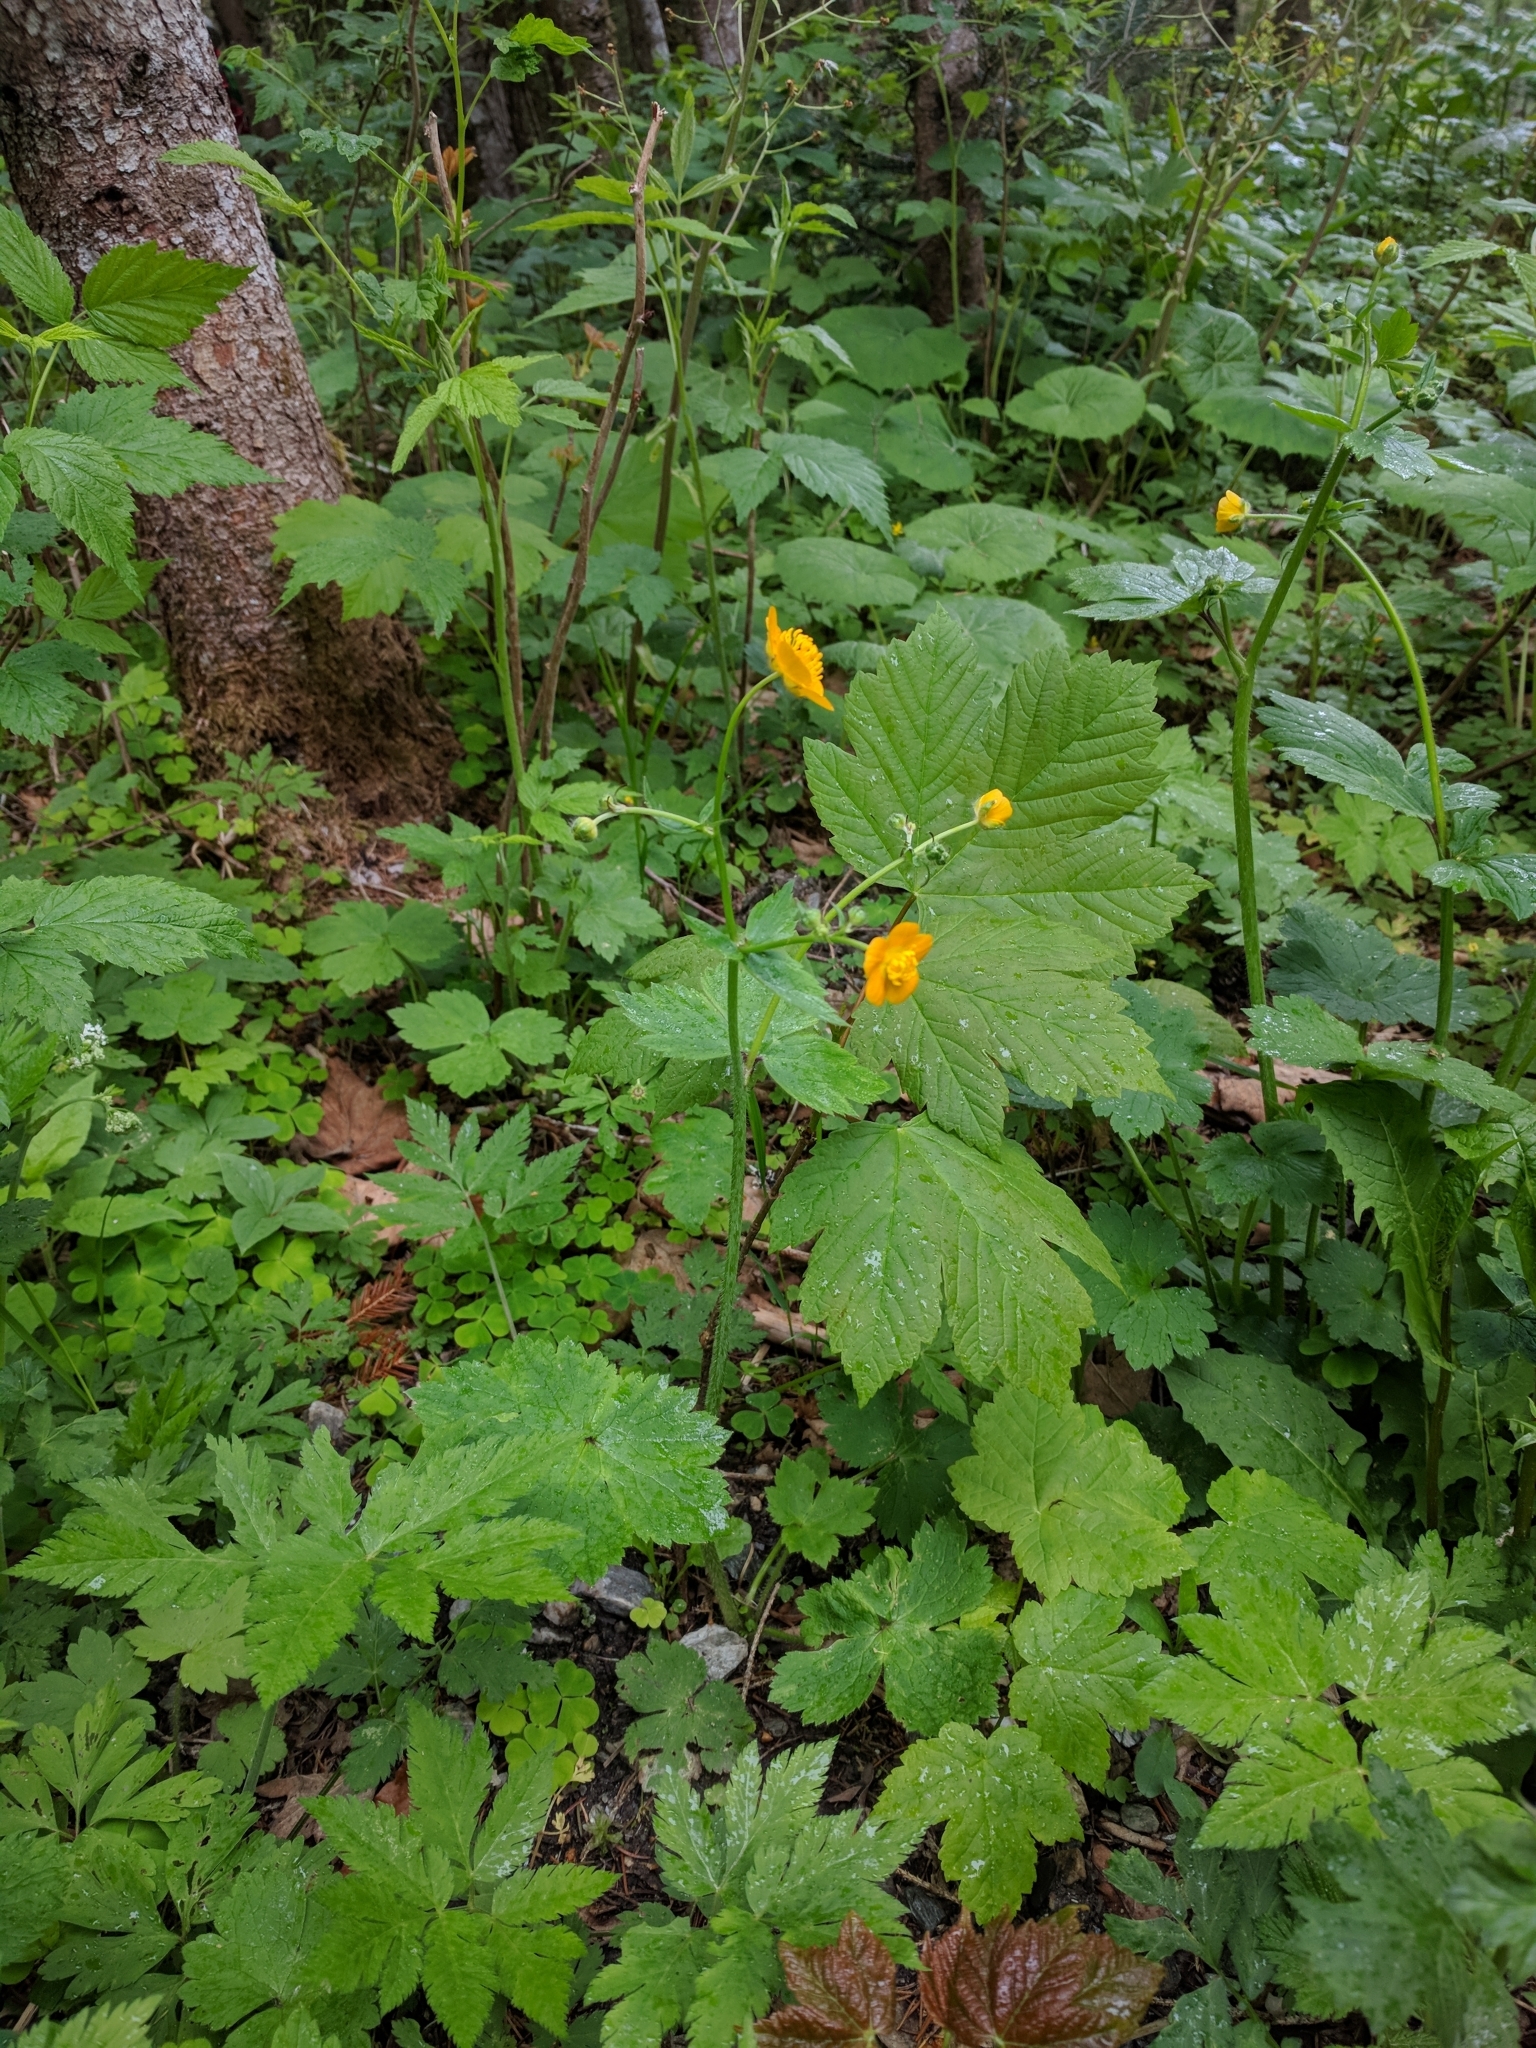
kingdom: Plantae
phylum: Tracheophyta
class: Magnoliopsida
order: Ranunculales
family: Ranunculaceae
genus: Ranunculus
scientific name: Ranunculus lanuginosus
